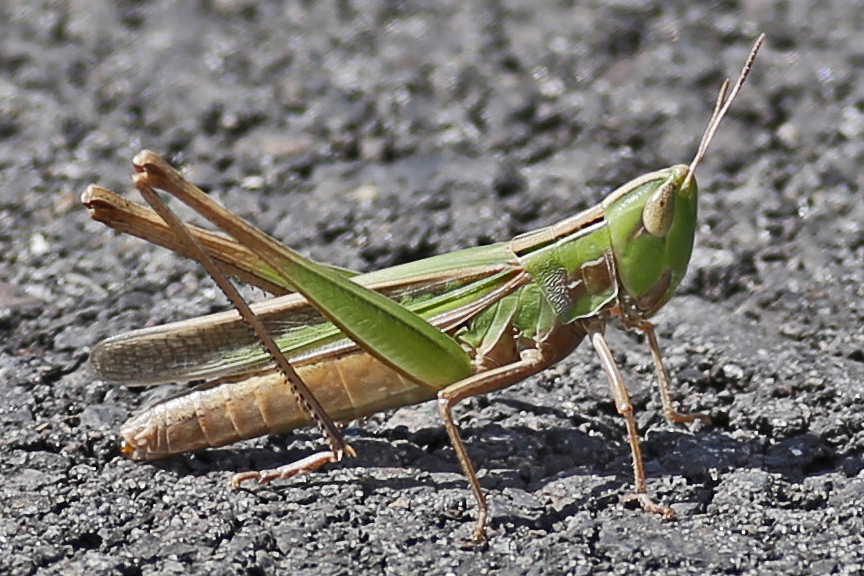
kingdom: Animalia
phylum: Arthropoda
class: Insecta
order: Orthoptera
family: Acrididae
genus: Syrbula
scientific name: Syrbula admirabilis
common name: Handsome grasshopper
